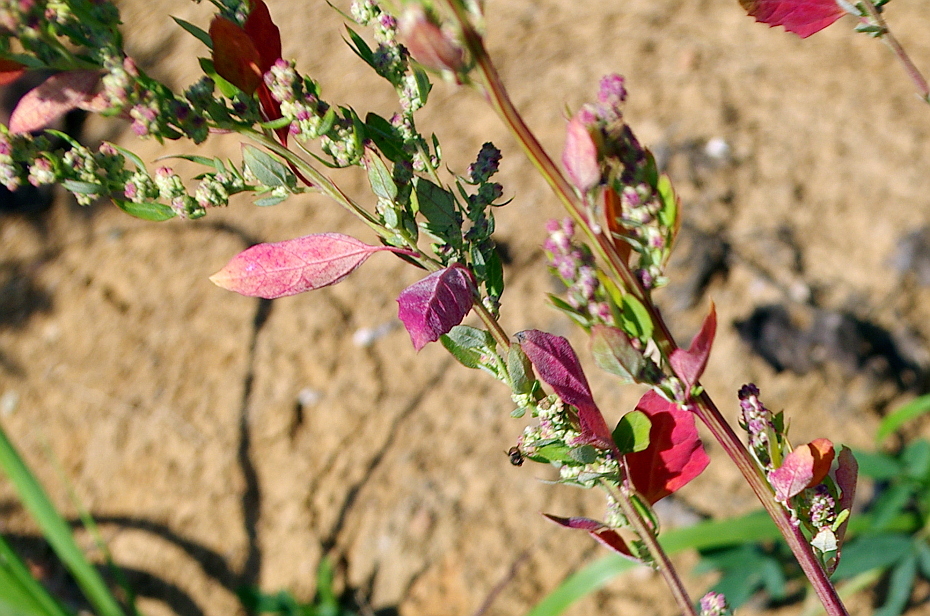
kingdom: Plantae
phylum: Tracheophyta
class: Magnoliopsida
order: Caryophyllales
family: Amaranthaceae
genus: Chenopodium
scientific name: Chenopodium album
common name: Fat-hen
